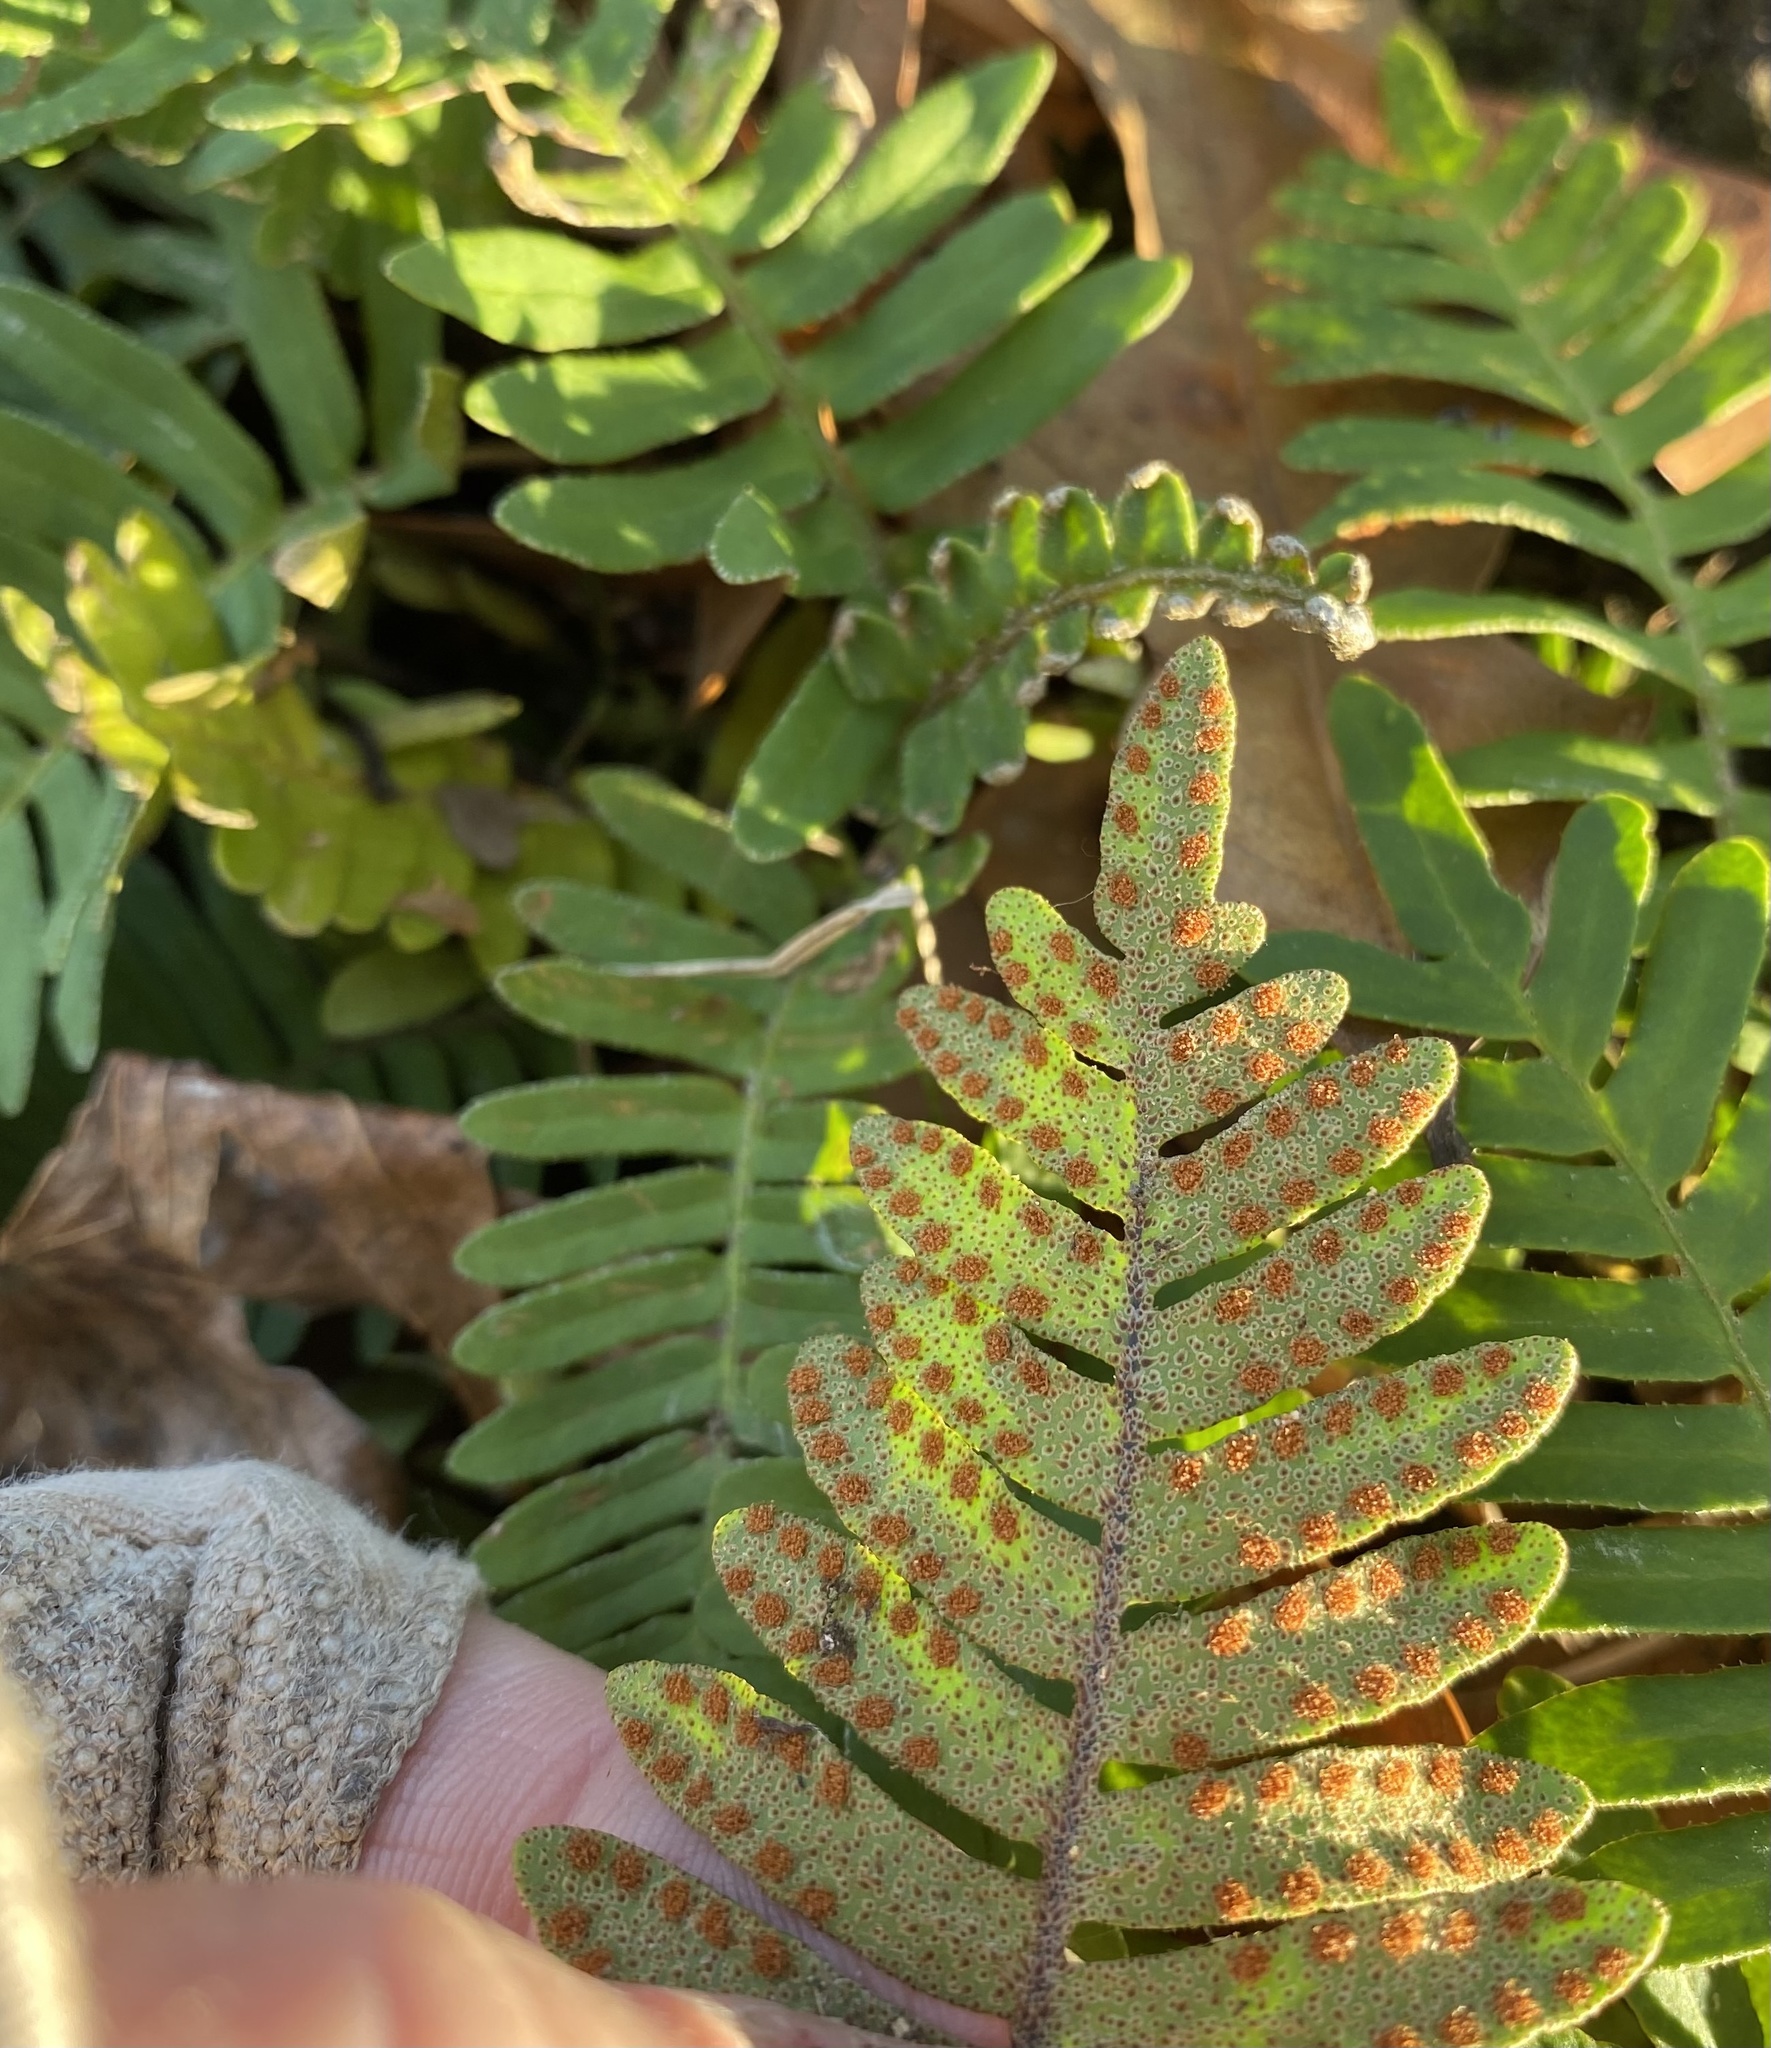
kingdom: Plantae
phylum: Tracheophyta
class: Polypodiopsida
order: Polypodiales
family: Polypodiaceae
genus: Pleopeltis
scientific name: Pleopeltis michauxiana
